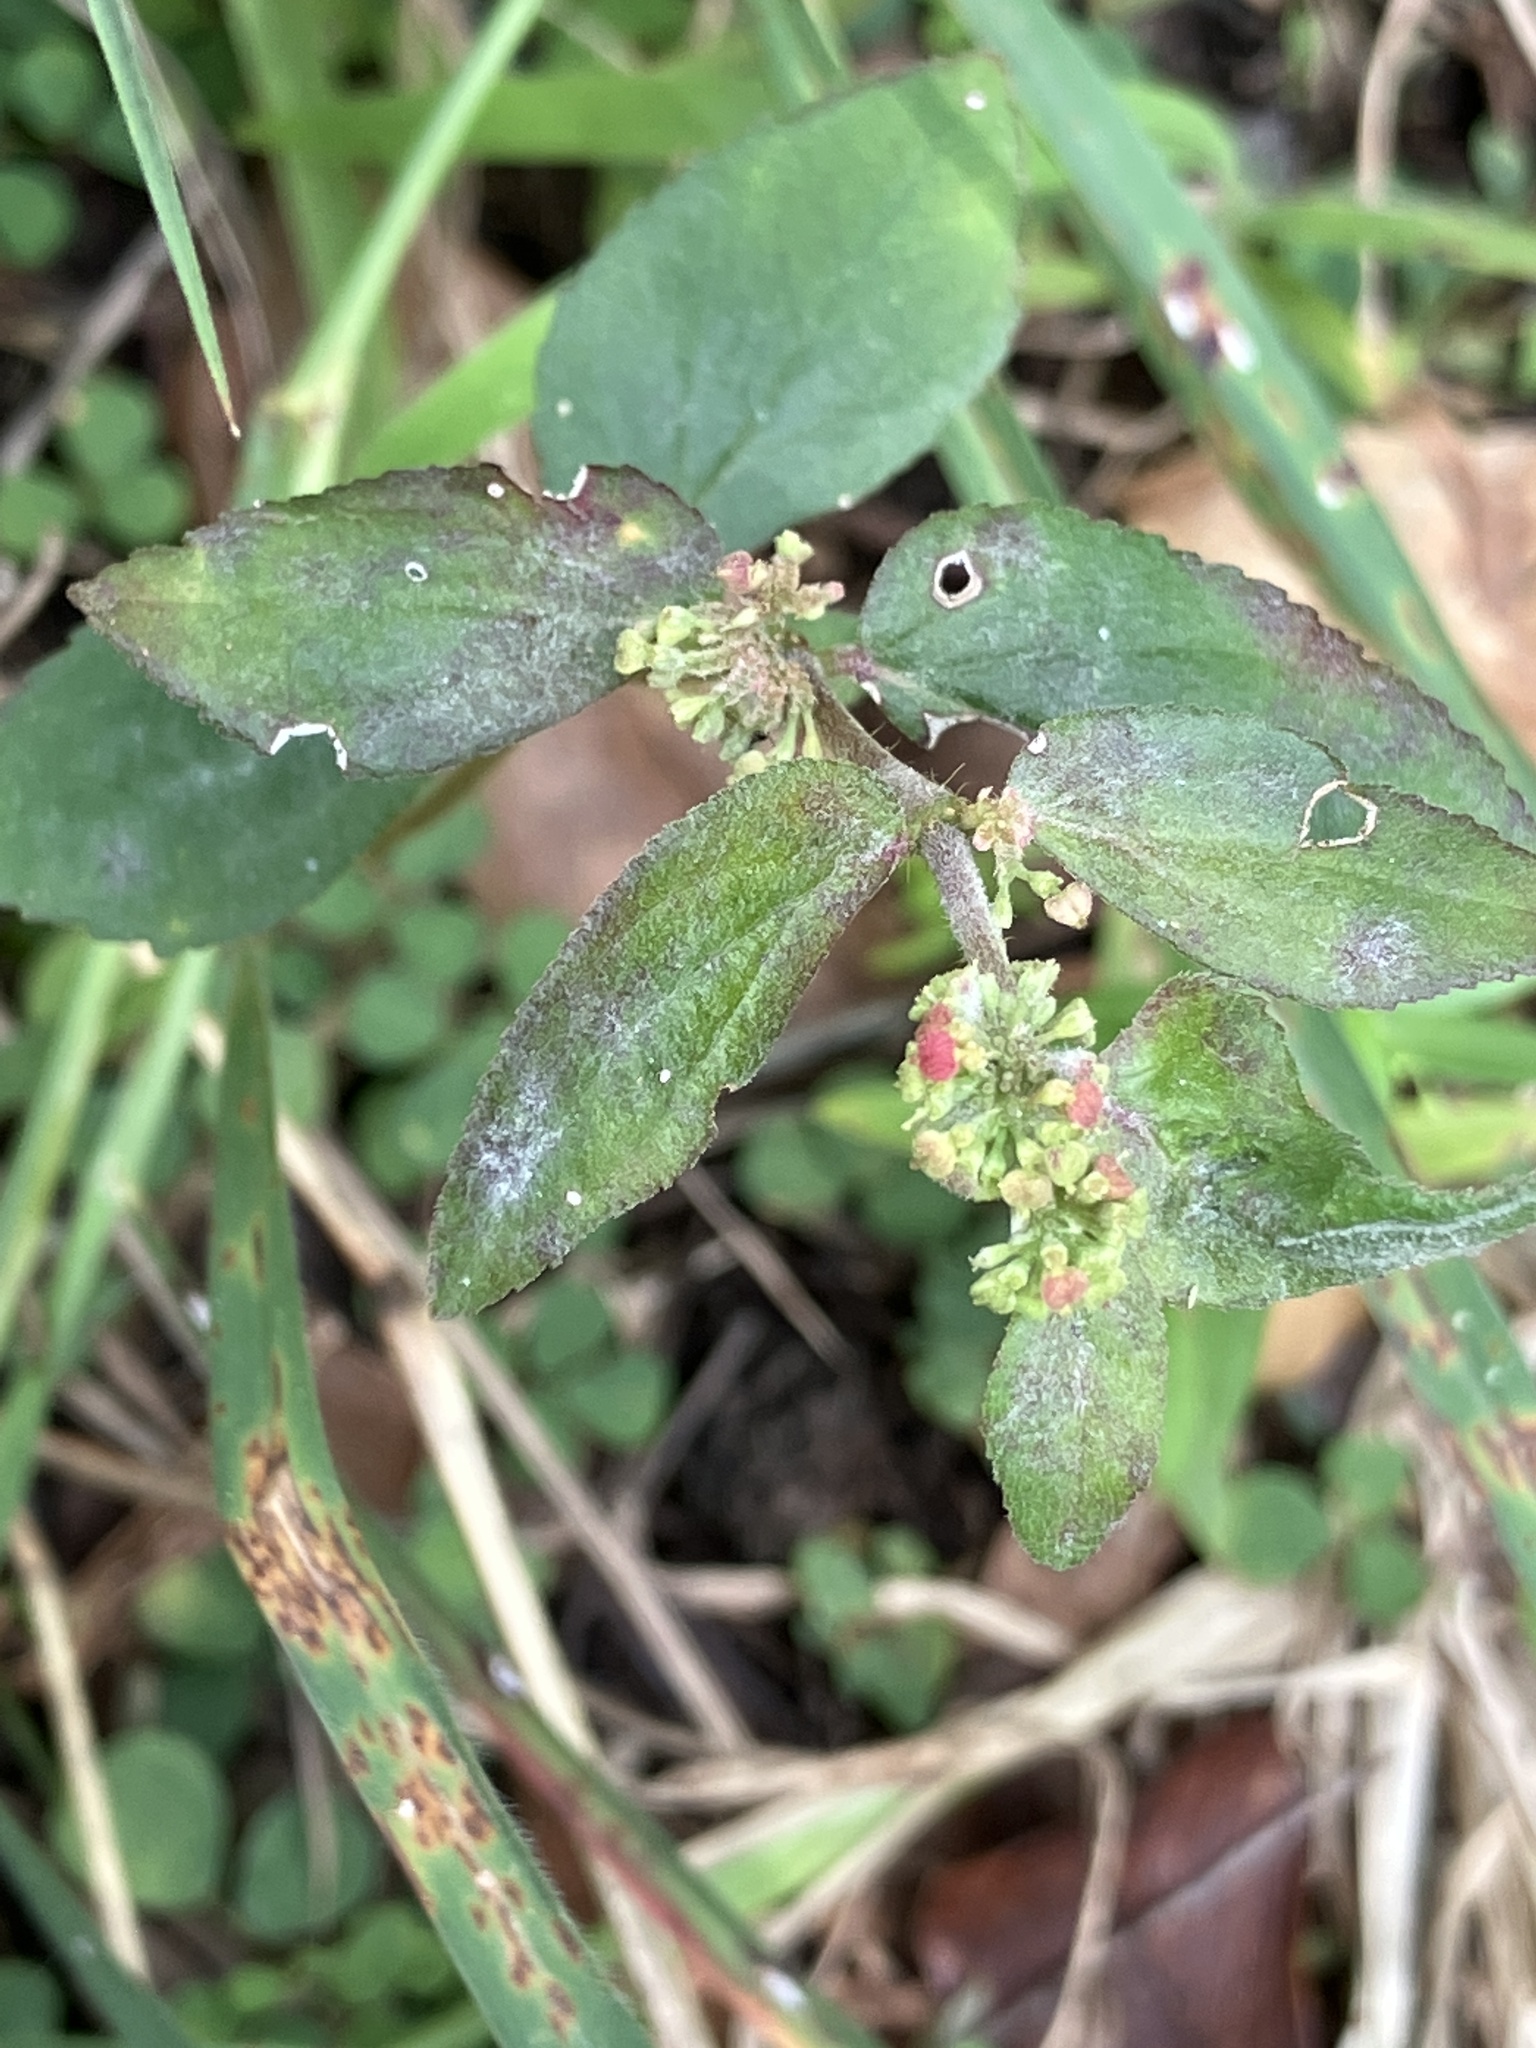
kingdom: Plantae
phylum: Tracheophyta
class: Magnoliopsida
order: Malpighiales
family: Euphorbiaceae
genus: Euphorbia
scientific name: Euphorbia hirta
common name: Pillpod sandmat
